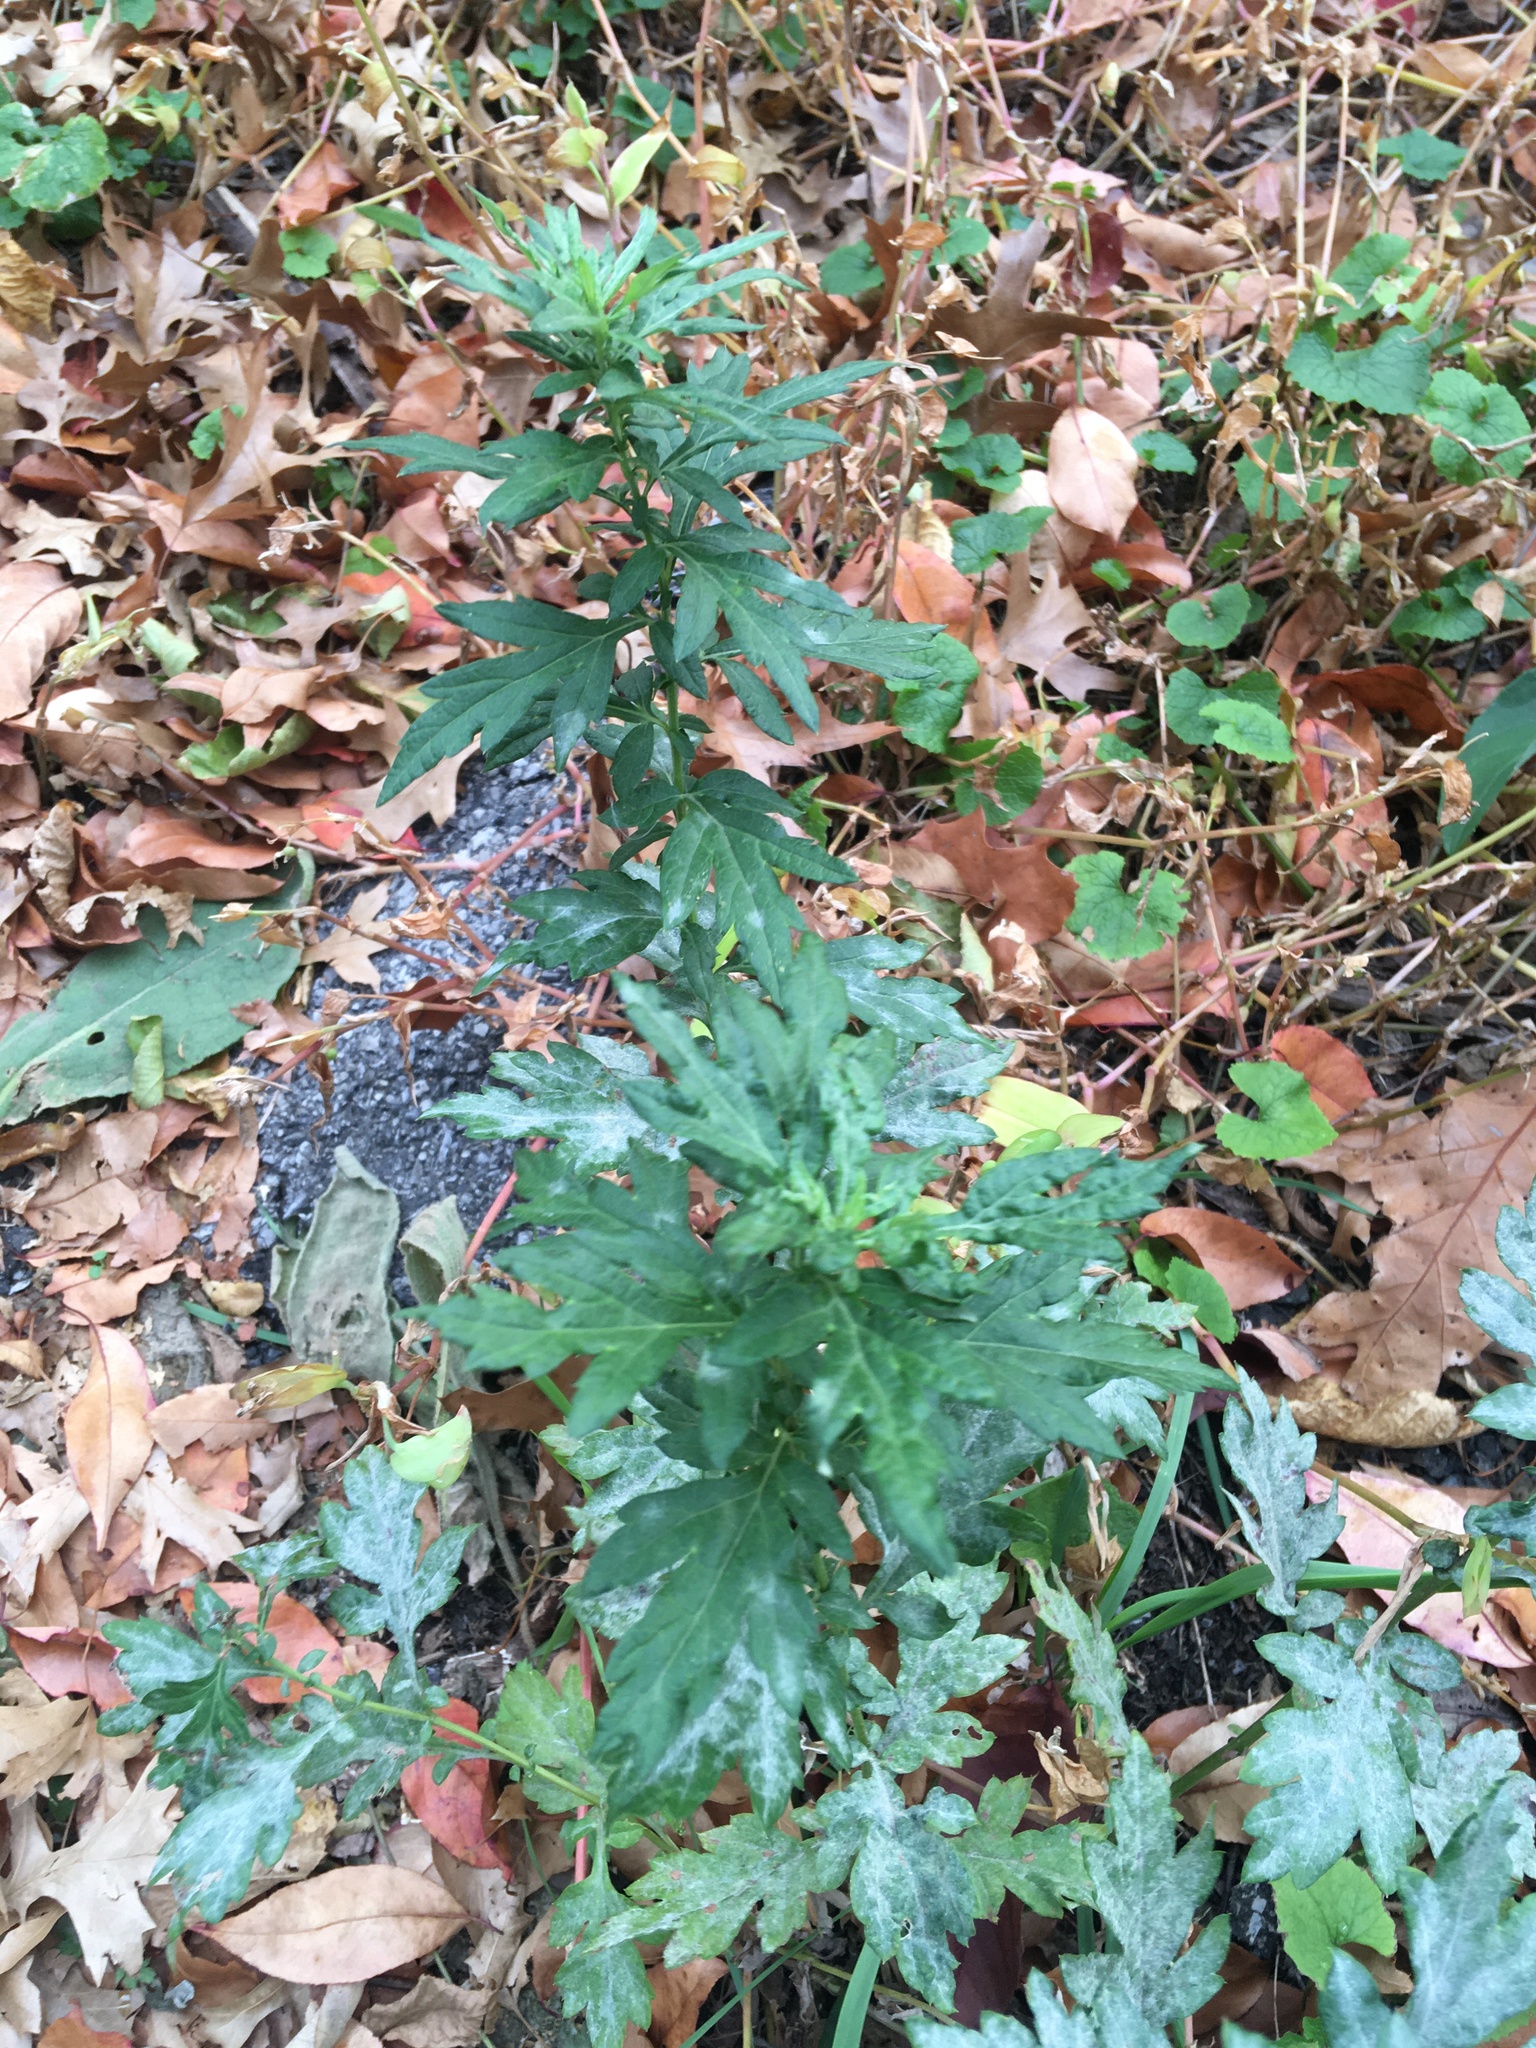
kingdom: Plantae
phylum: Tracheophyta
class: Magnoliopsida
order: Asterales
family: Asteraceae
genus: Artemisia
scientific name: Artemisia vulgaris
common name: Mugwort
